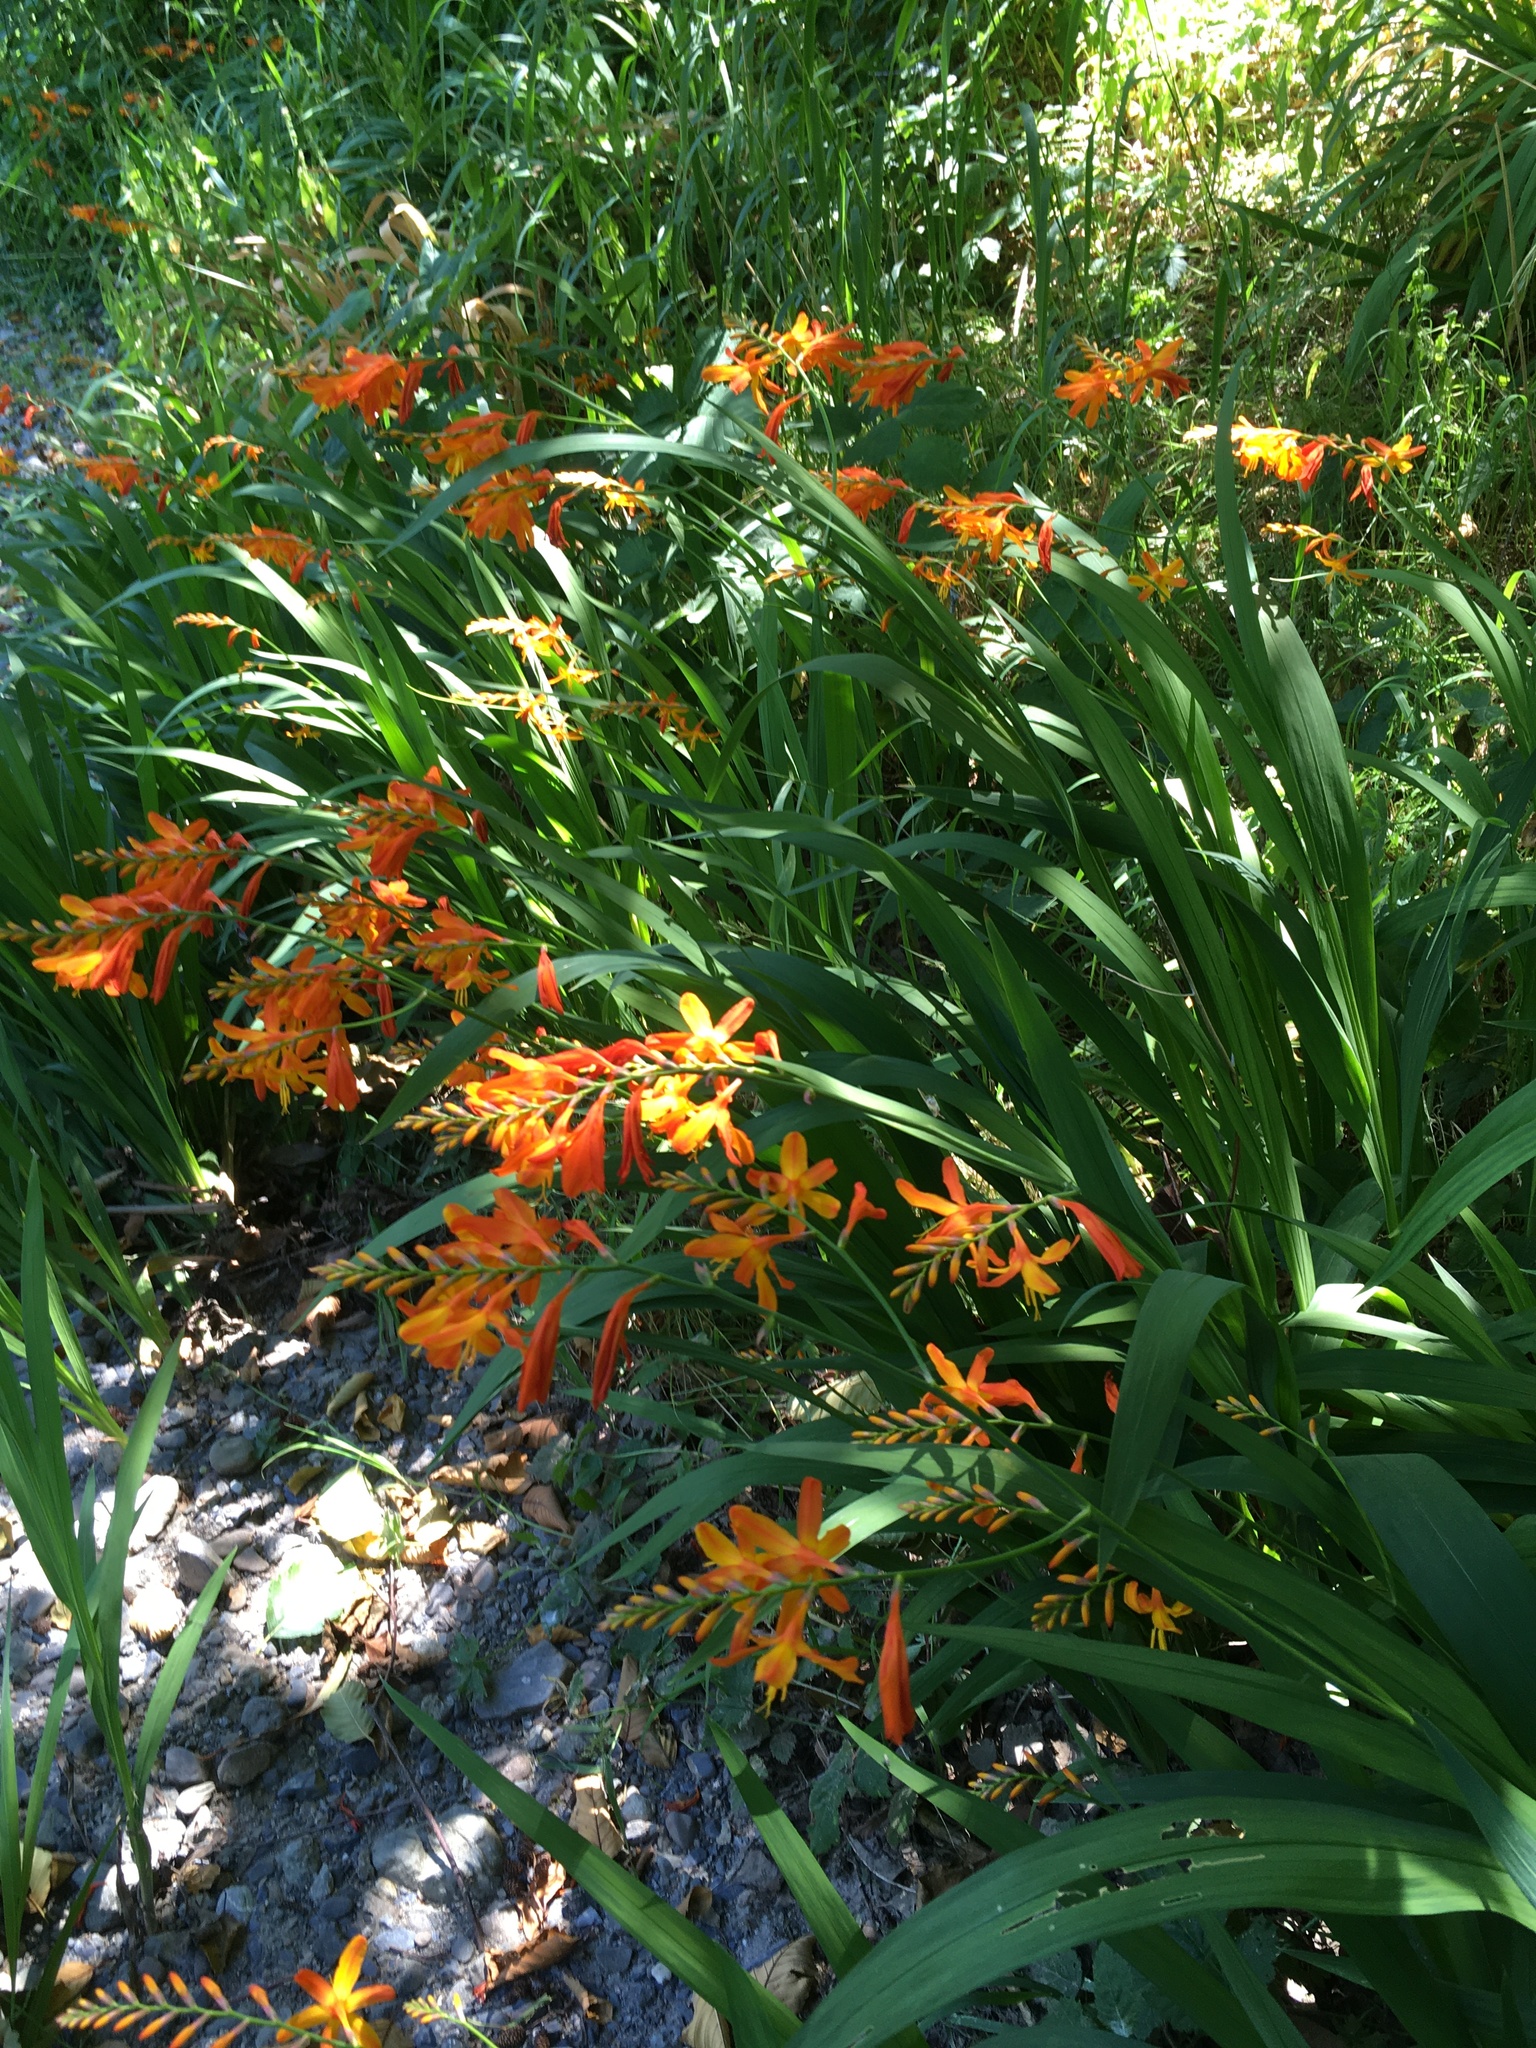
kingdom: Plantae
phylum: Tracheophyta
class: Liliopsida
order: Asparagales
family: Iridaceae
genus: Crocosmia
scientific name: Crocosmia crocosmiiflora
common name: Montbretia
